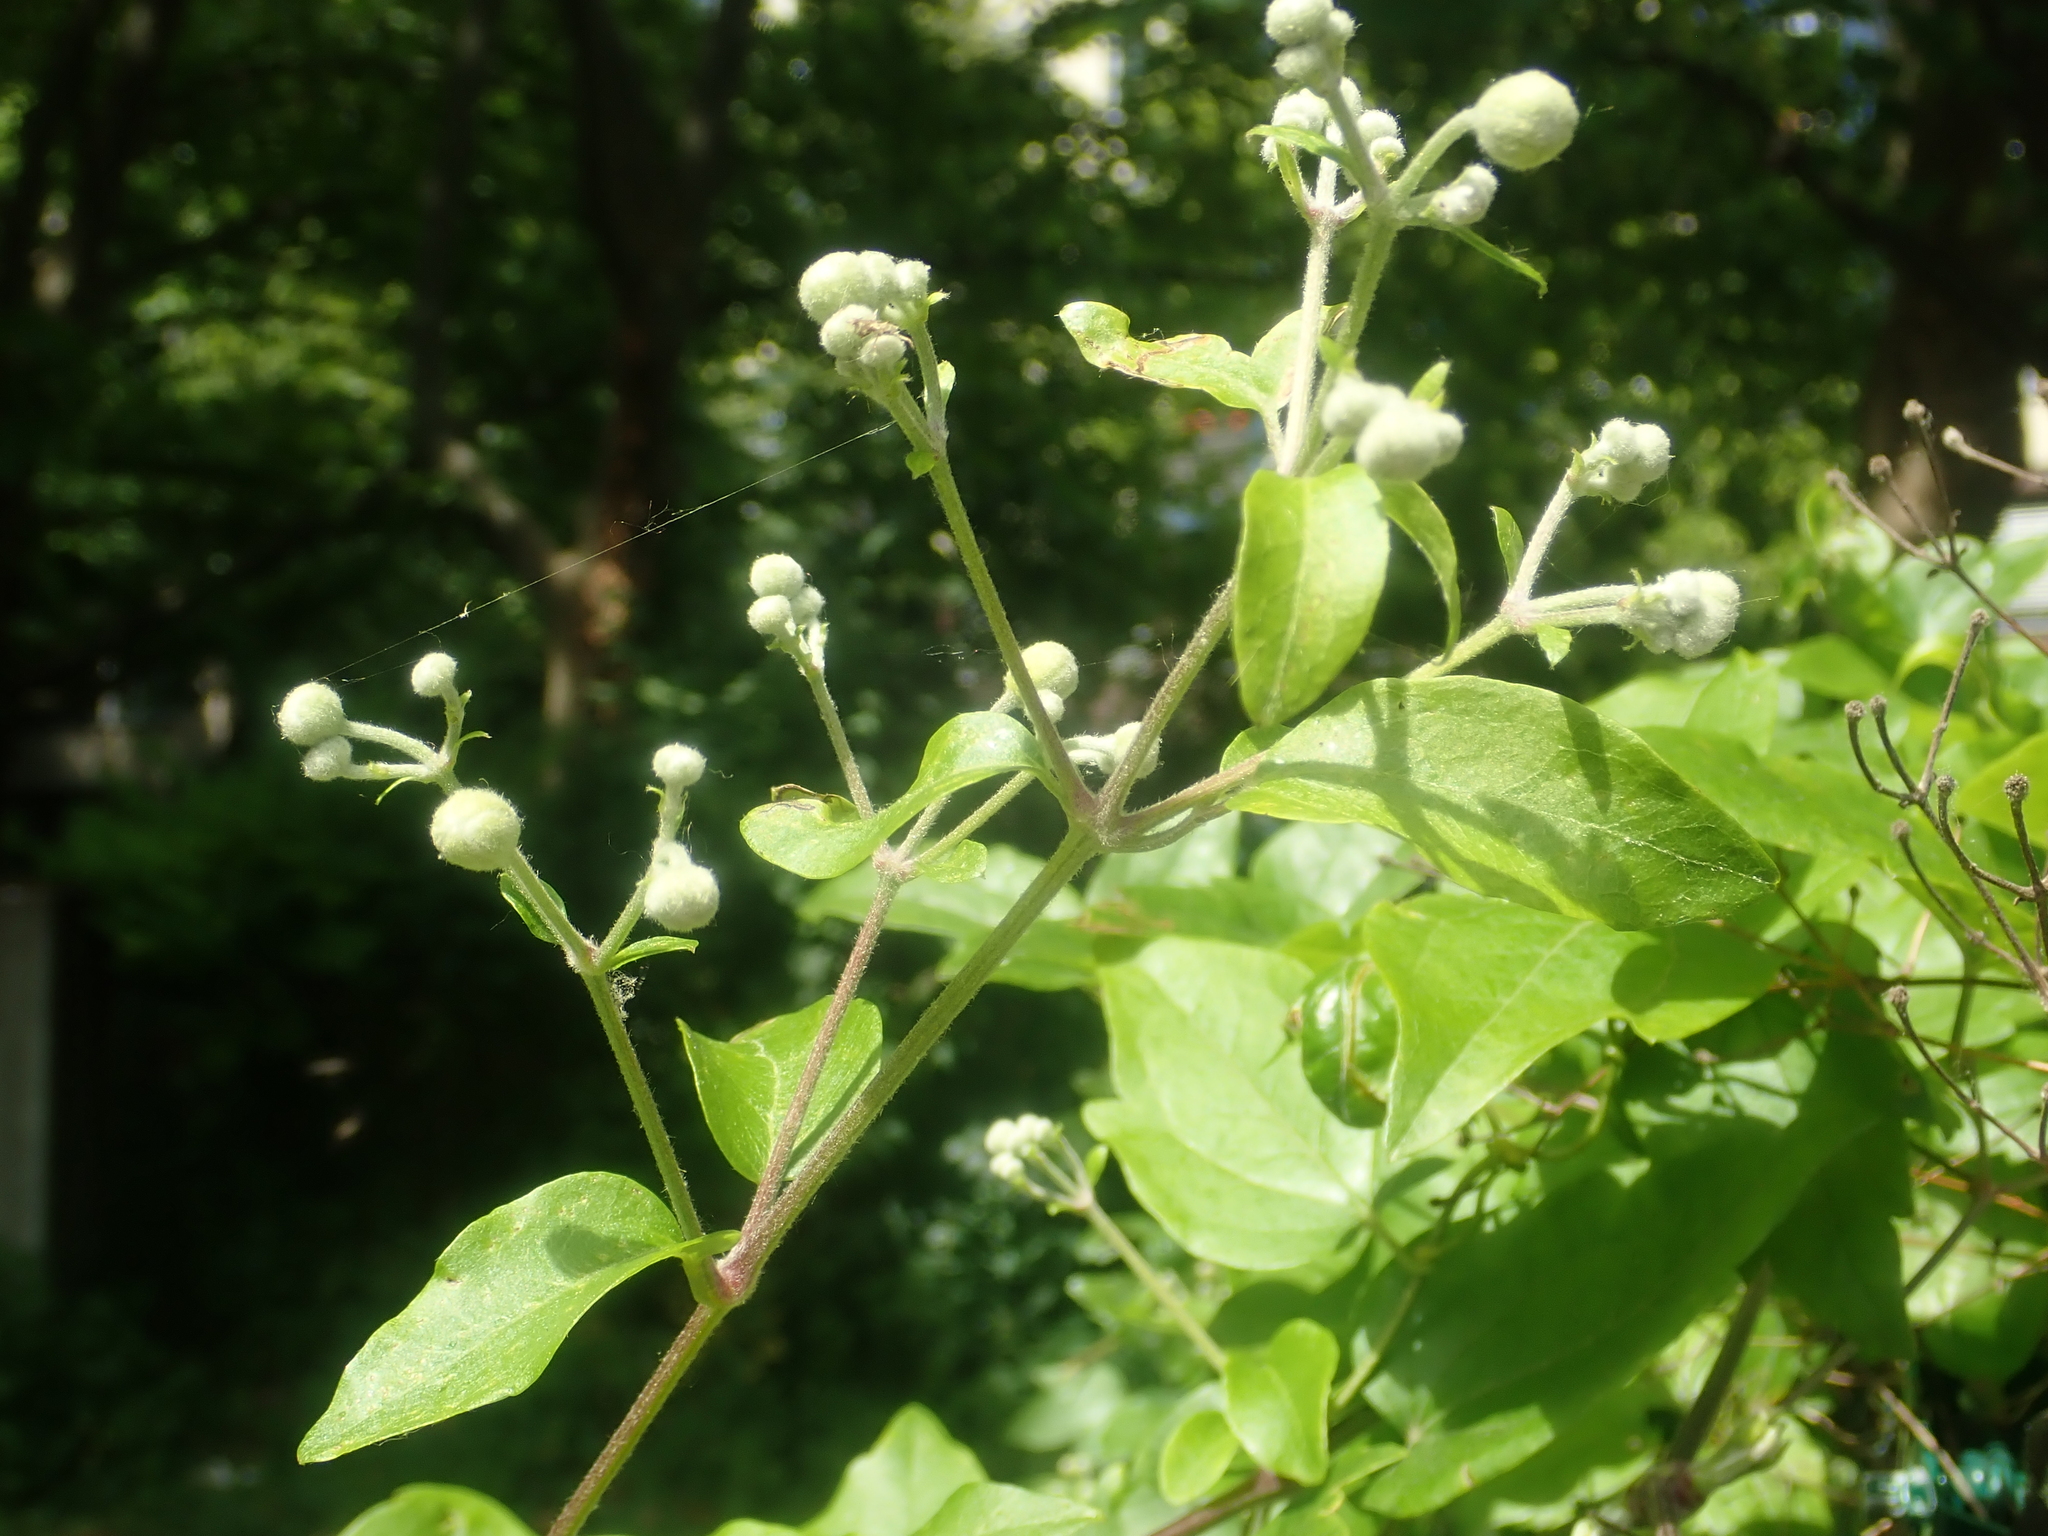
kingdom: Plantae
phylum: Tracheophyta
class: Magnoliopsida
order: Ranunculales
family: Ranunculaceae
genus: Clematis
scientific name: Clematis vitalba
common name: Evergreen clematis
